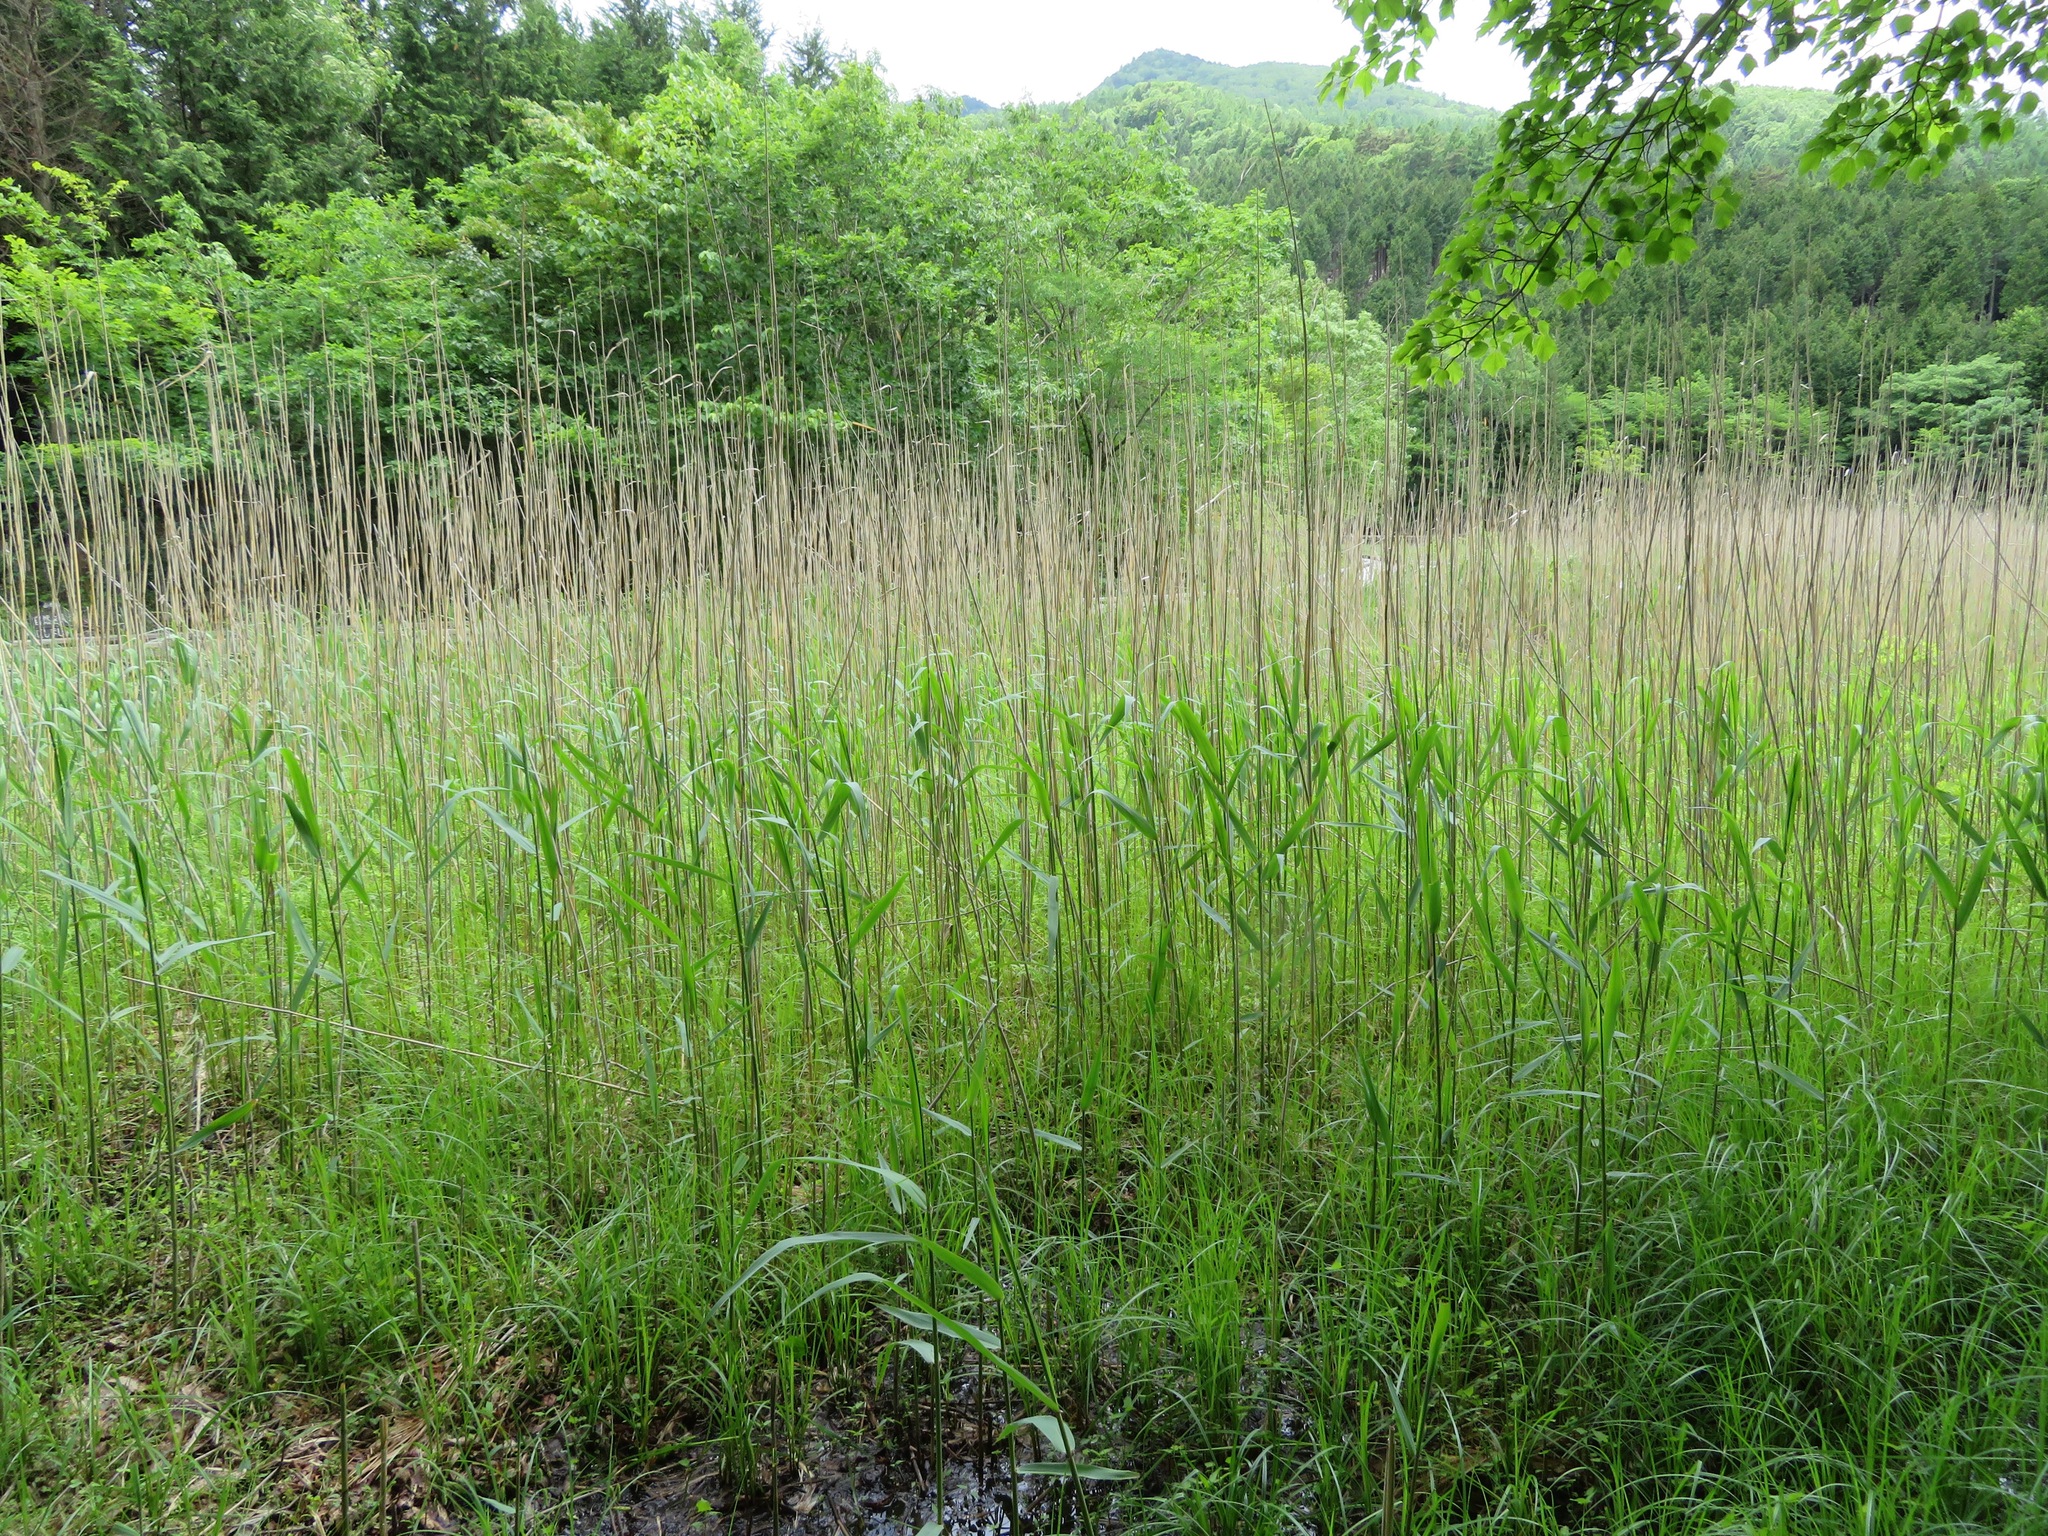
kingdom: Plantae
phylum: Tracheophyta
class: Liliopsida
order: Poales
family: Poaceae
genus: Phragmites
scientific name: Phragmites australis
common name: Common reed
